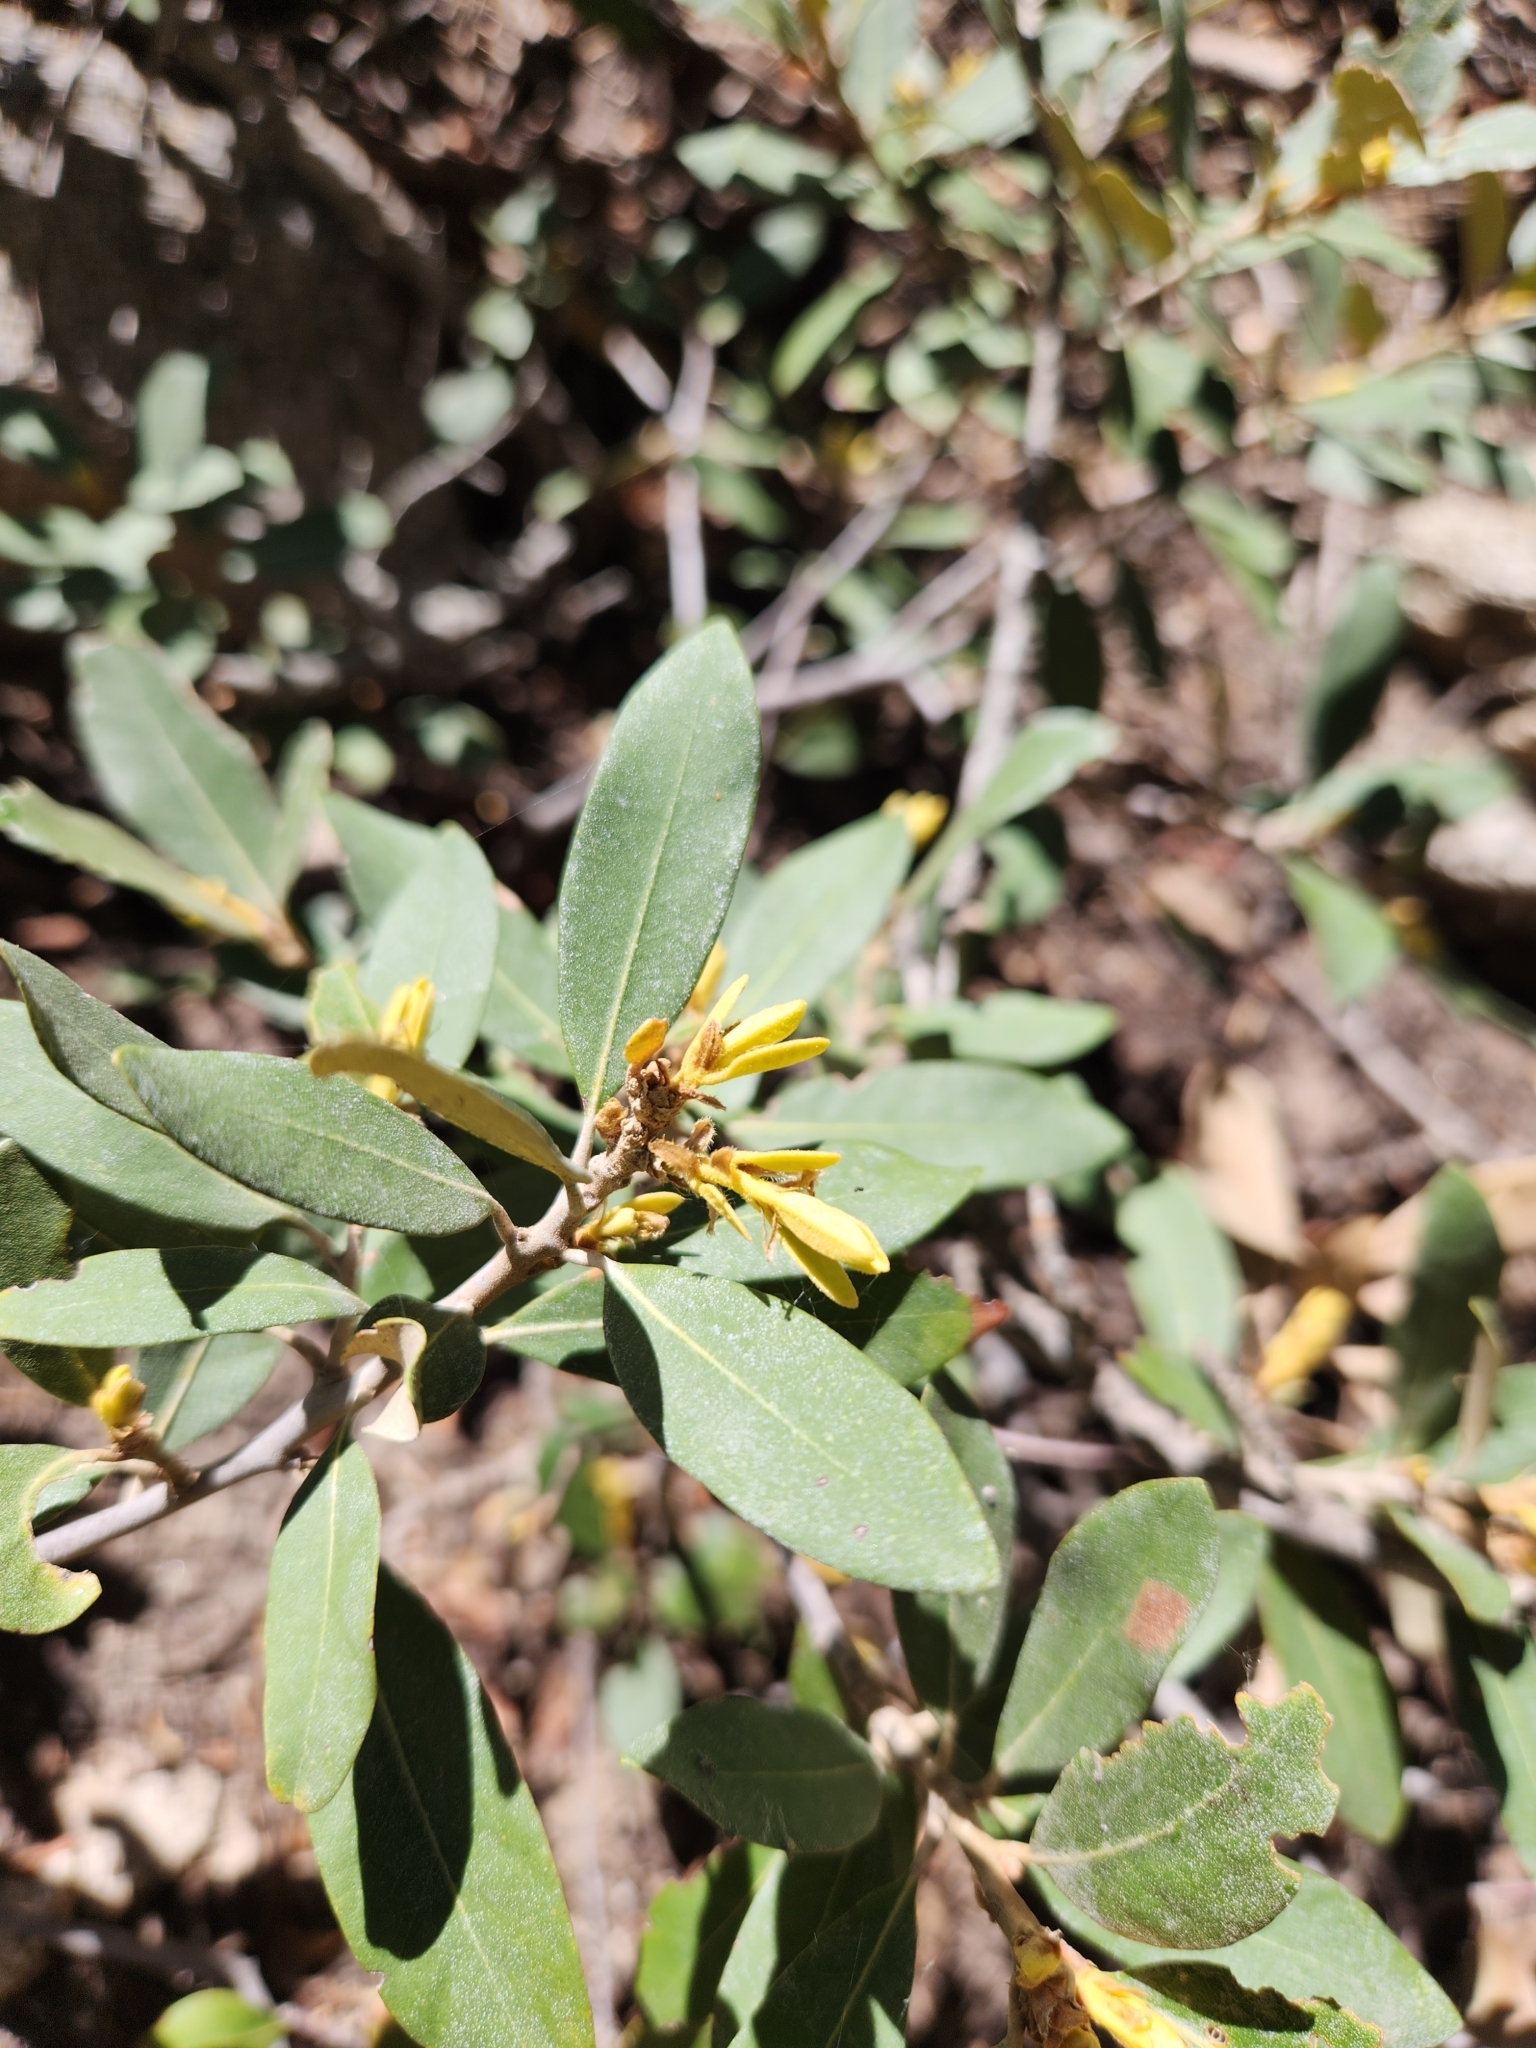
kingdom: Plantae
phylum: Tracheophyta
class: Magnoliopsida
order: Fagales
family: Fagaceae
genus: Chrysolepis
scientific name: Chrysolepis sempervirens
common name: Bush chinquapin
